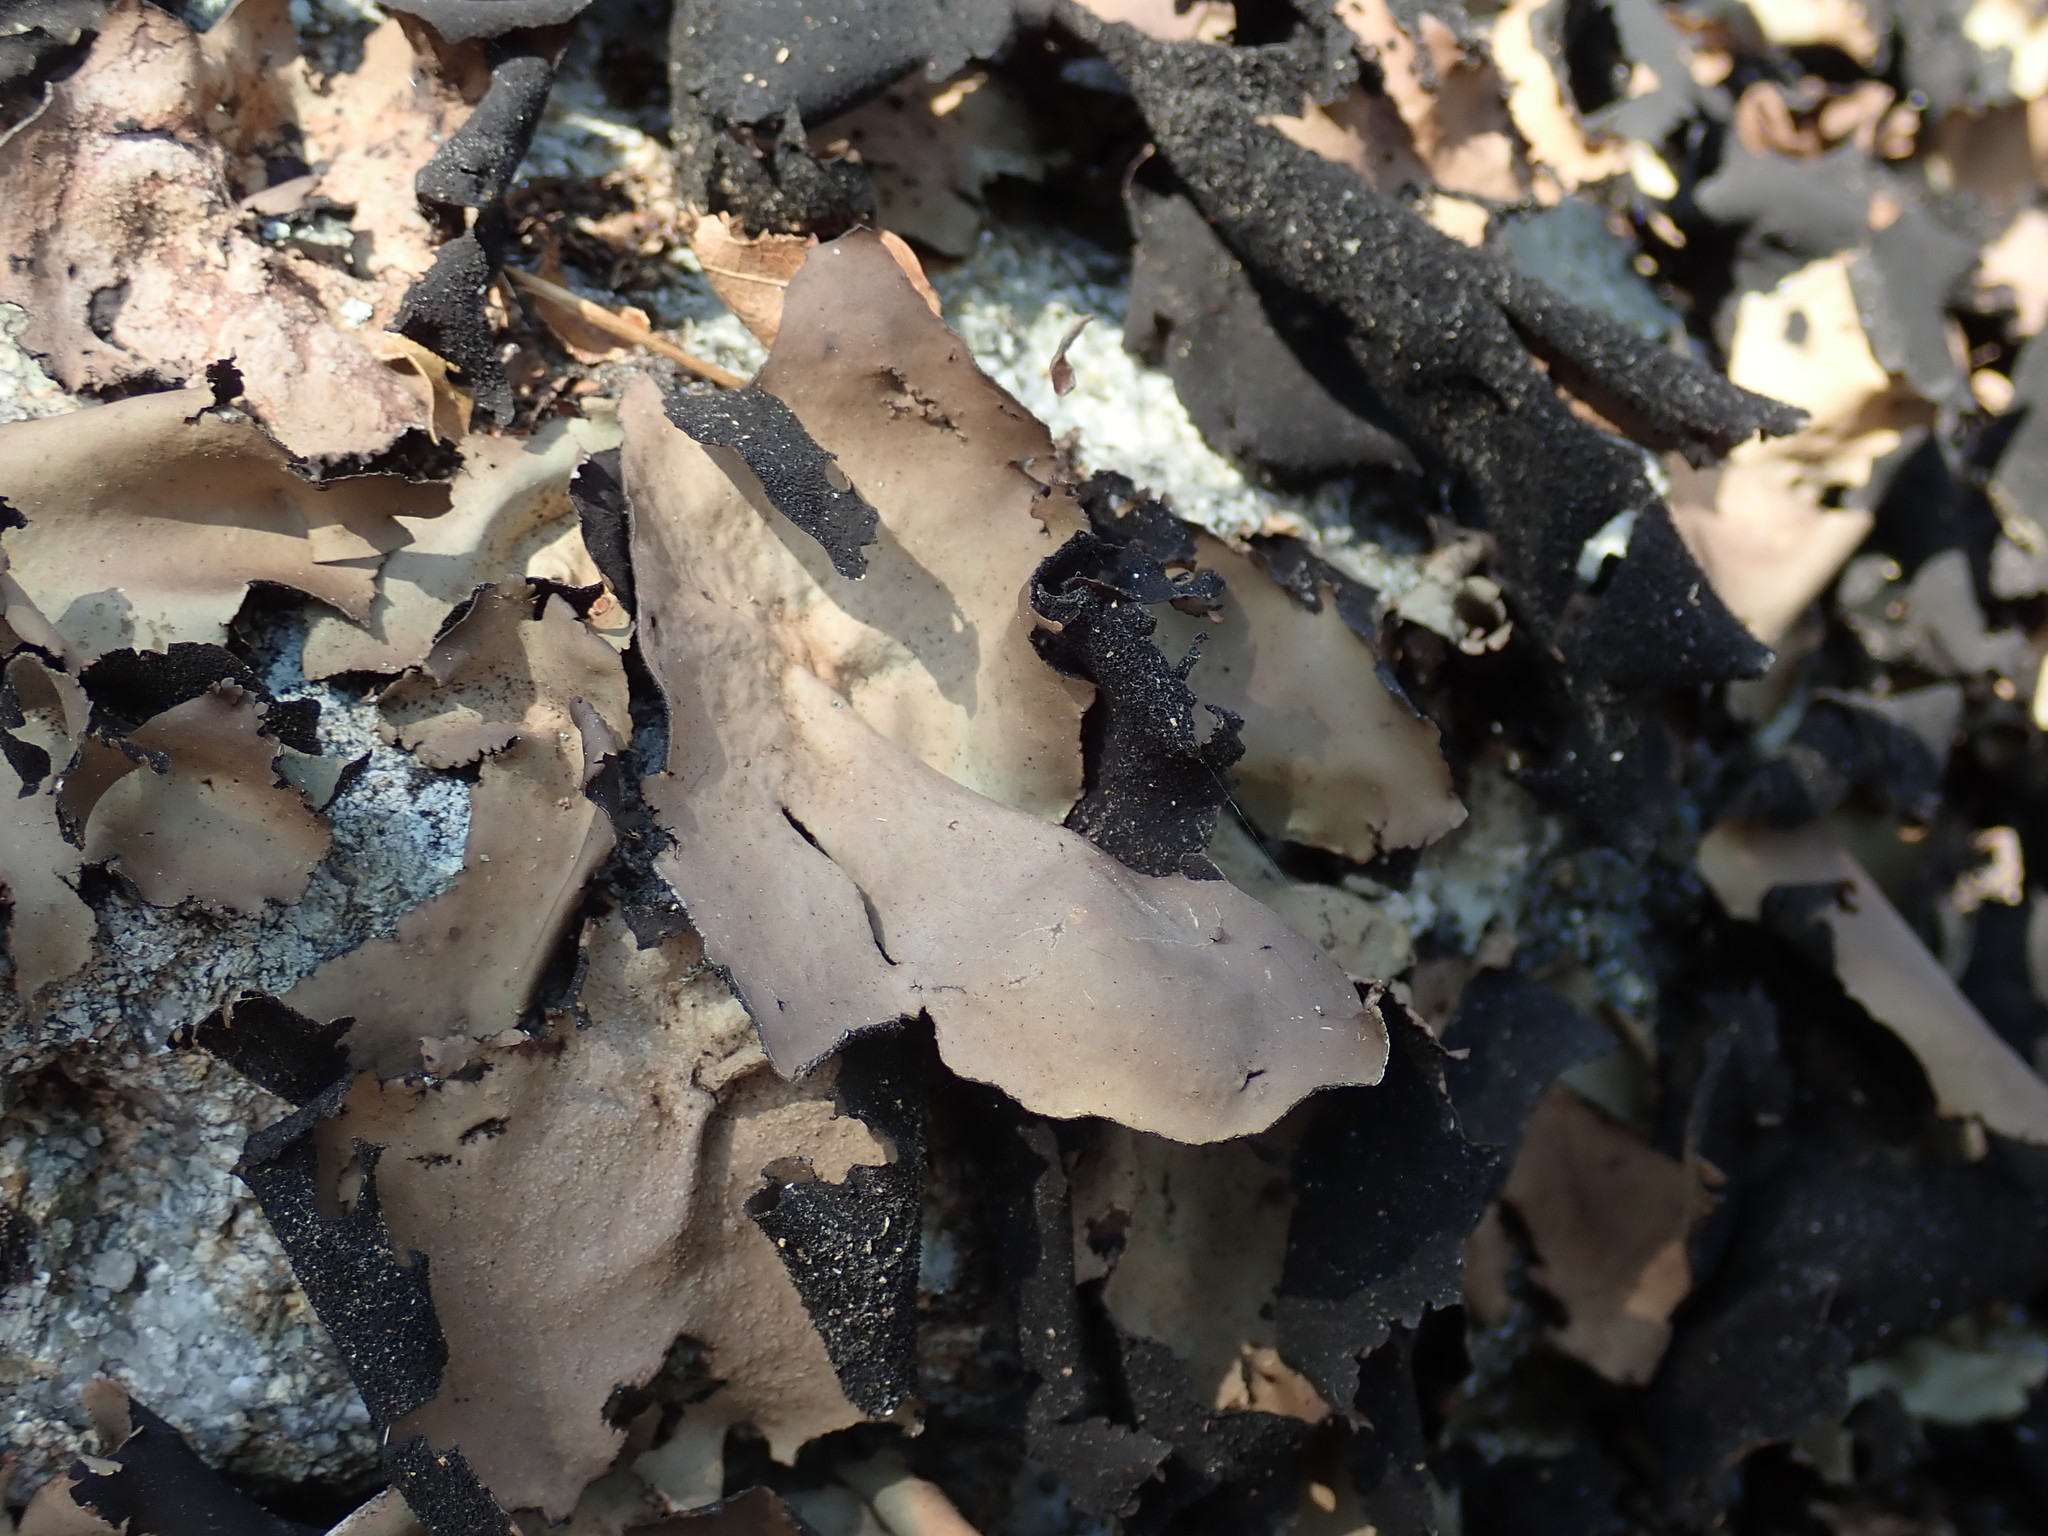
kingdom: Fungi
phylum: Ascomycota
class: Lecanoromycetes
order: Umbilicariales
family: Umbilicariaceae
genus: Umbilicaria
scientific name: Umbilicaria mammulata
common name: Smooth rock tripe
